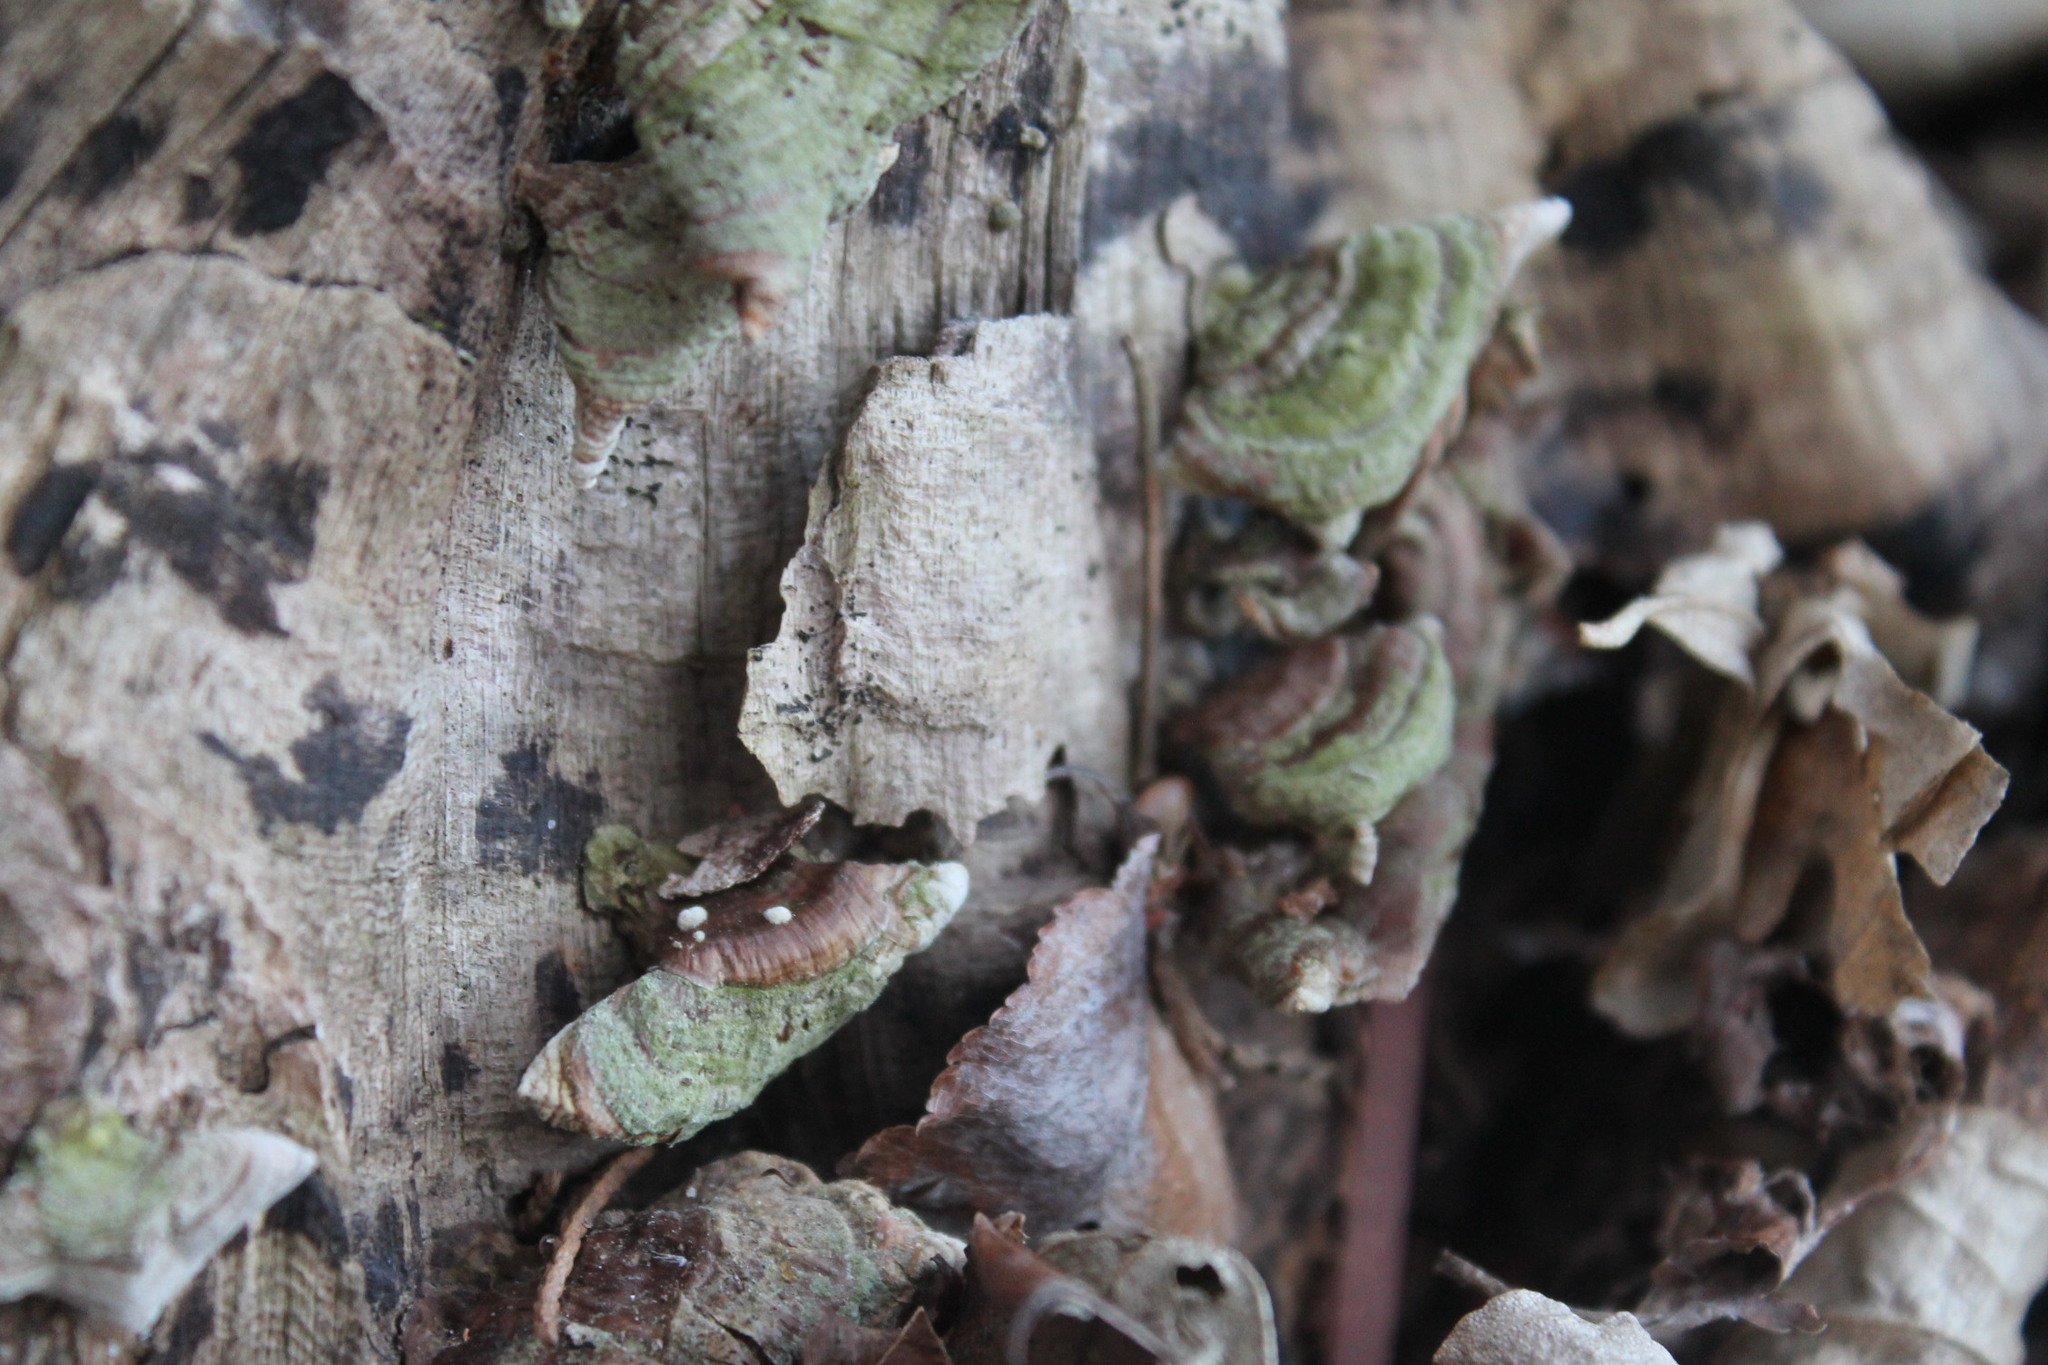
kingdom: Fungi
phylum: Basidiomycota
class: Agaricomycetes
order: Russulales
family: Stereaceae
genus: Stereum
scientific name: Stereum ostrea
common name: False turkeytail
